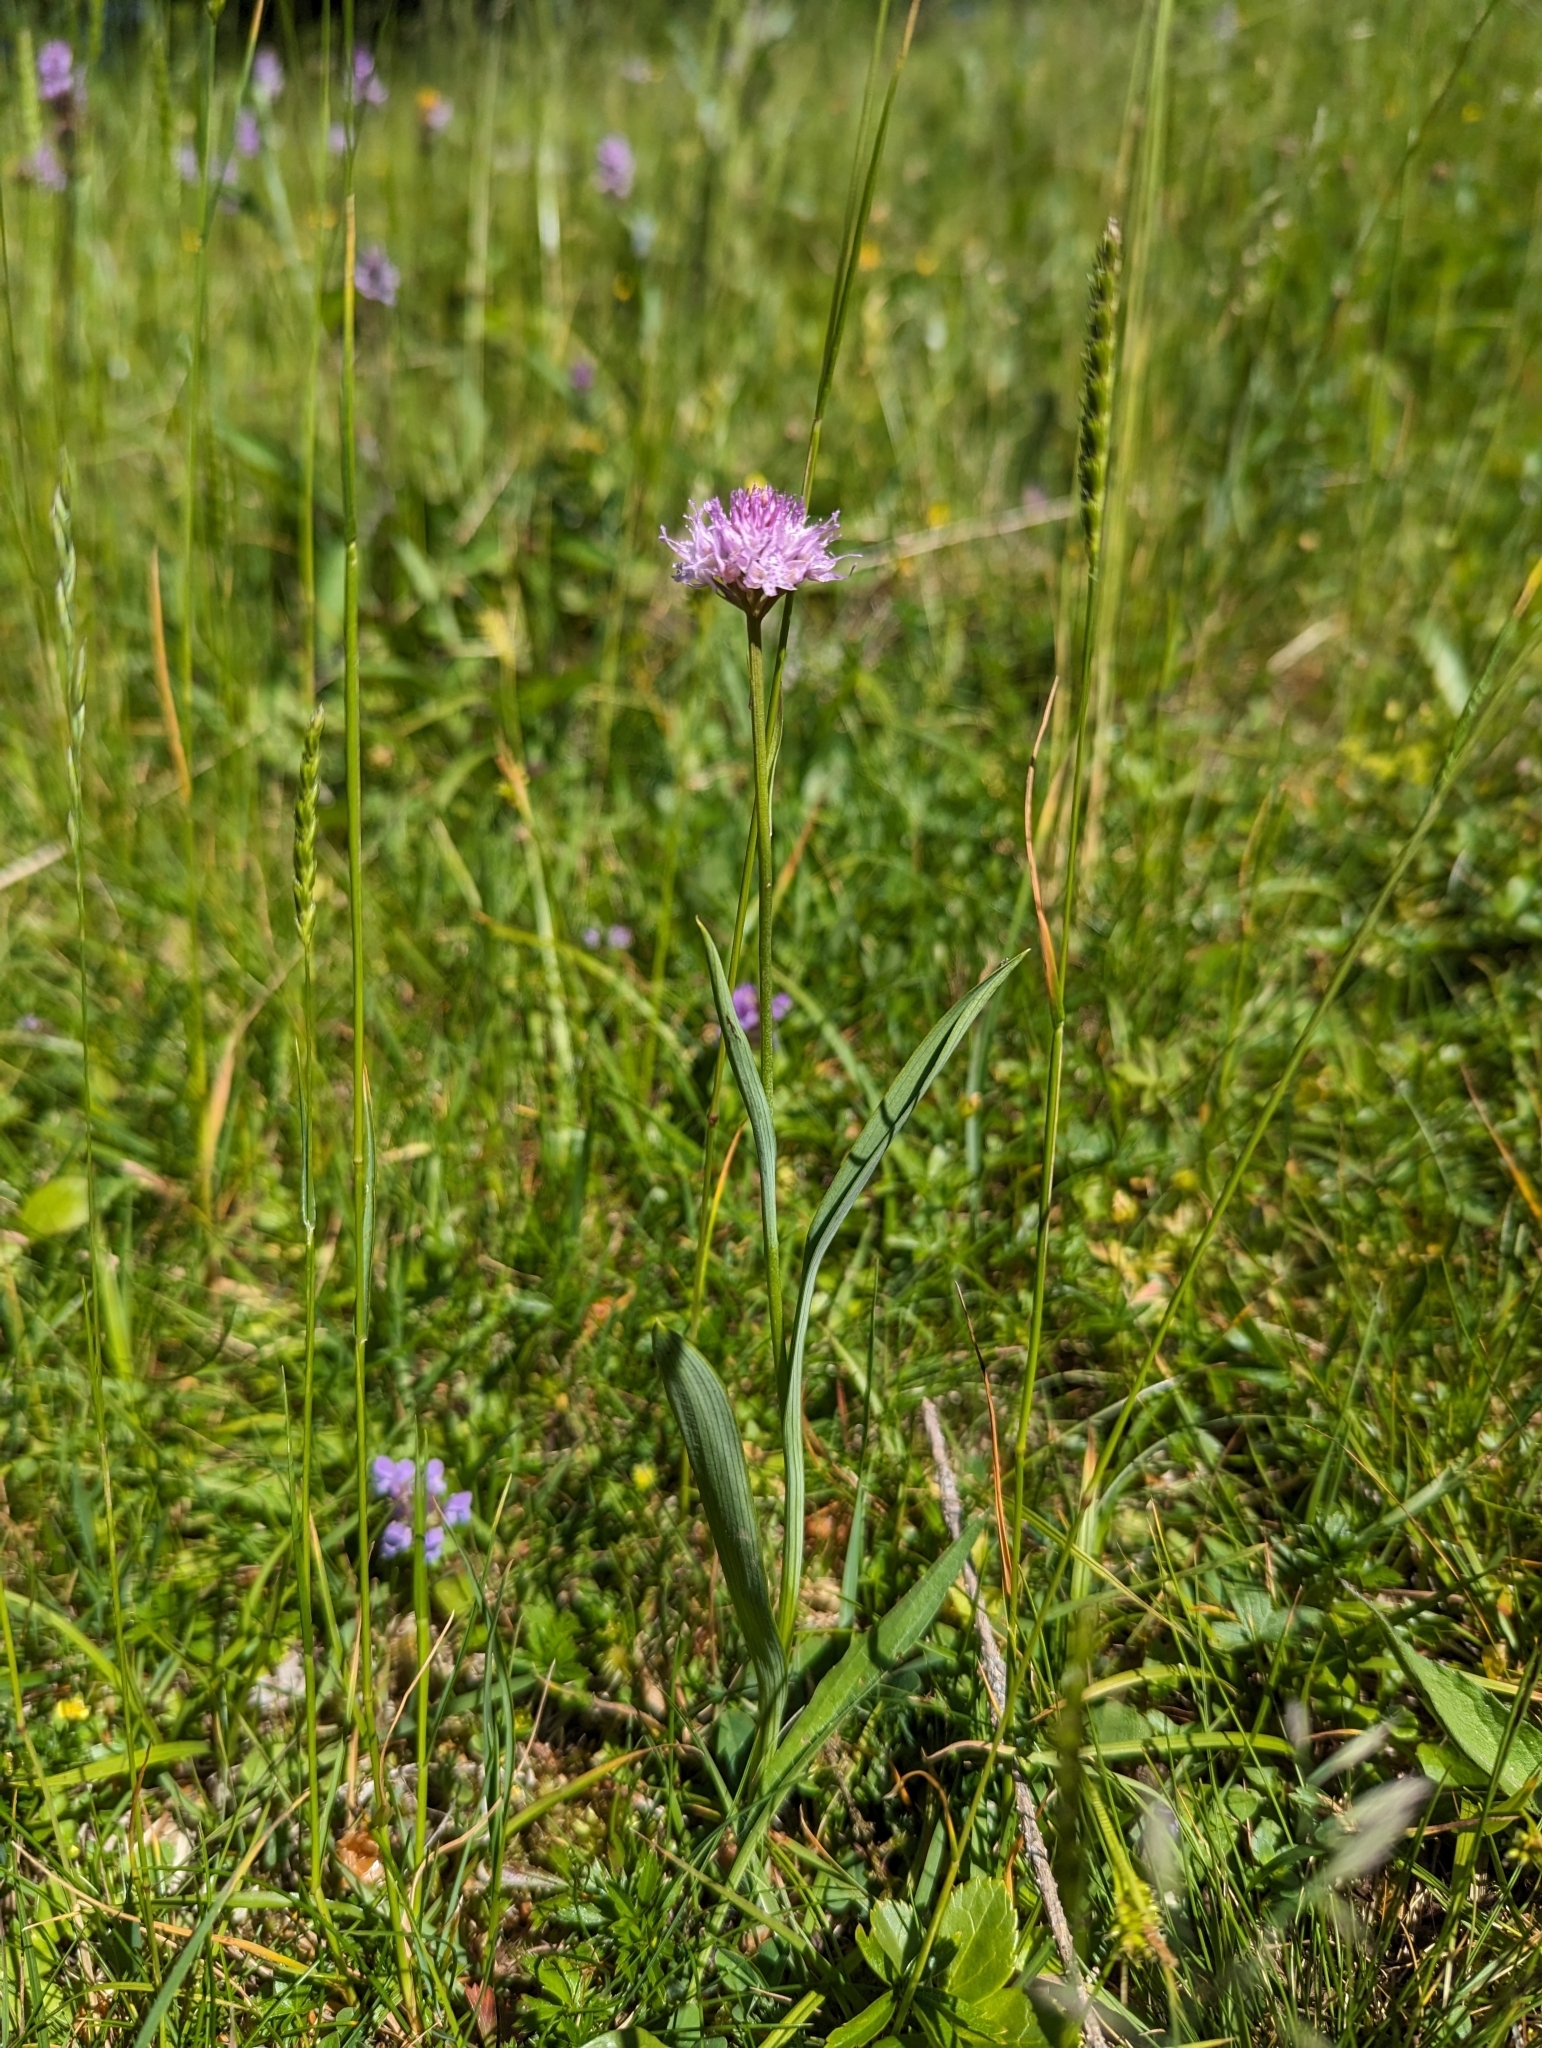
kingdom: Plantae
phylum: Tracheophyta
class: Liliopsida
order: Asparagales
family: Orchidaceae
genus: Traunsteinera
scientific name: Traunsteinera globosa
